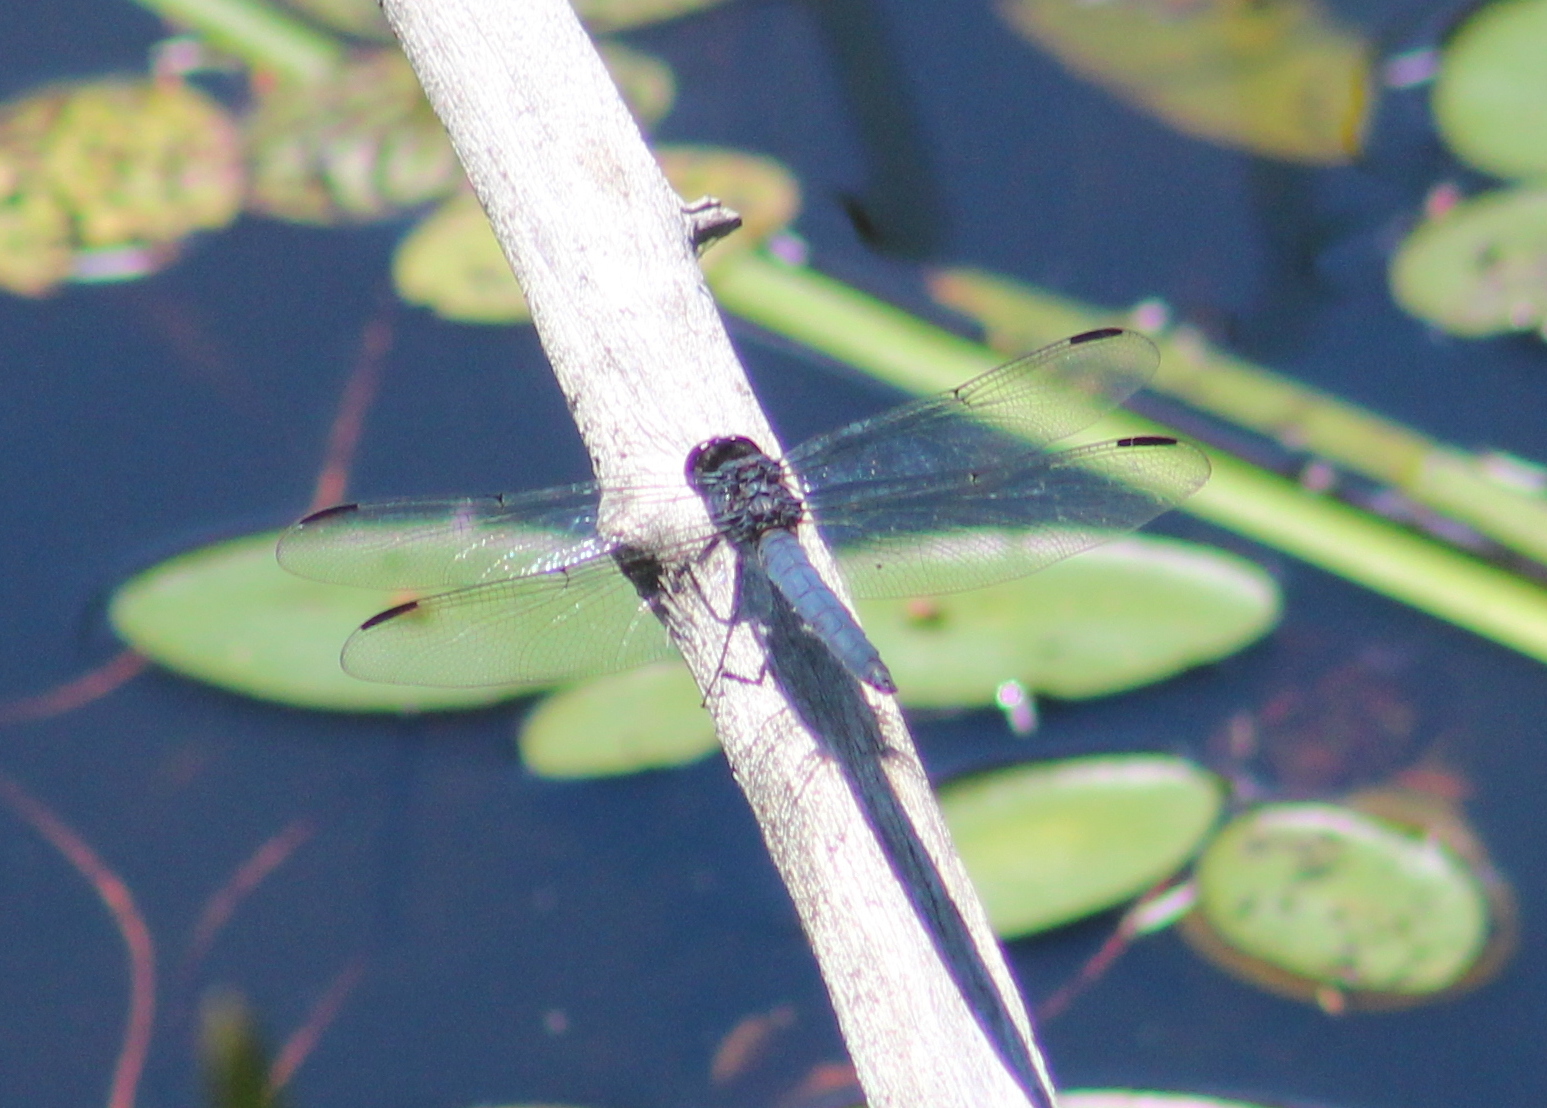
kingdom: Animalia
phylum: Arthropoda
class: Insecta
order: Odonata
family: Libellulidae
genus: Libellula
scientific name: Libellula incesta
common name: Slaty skimmer
